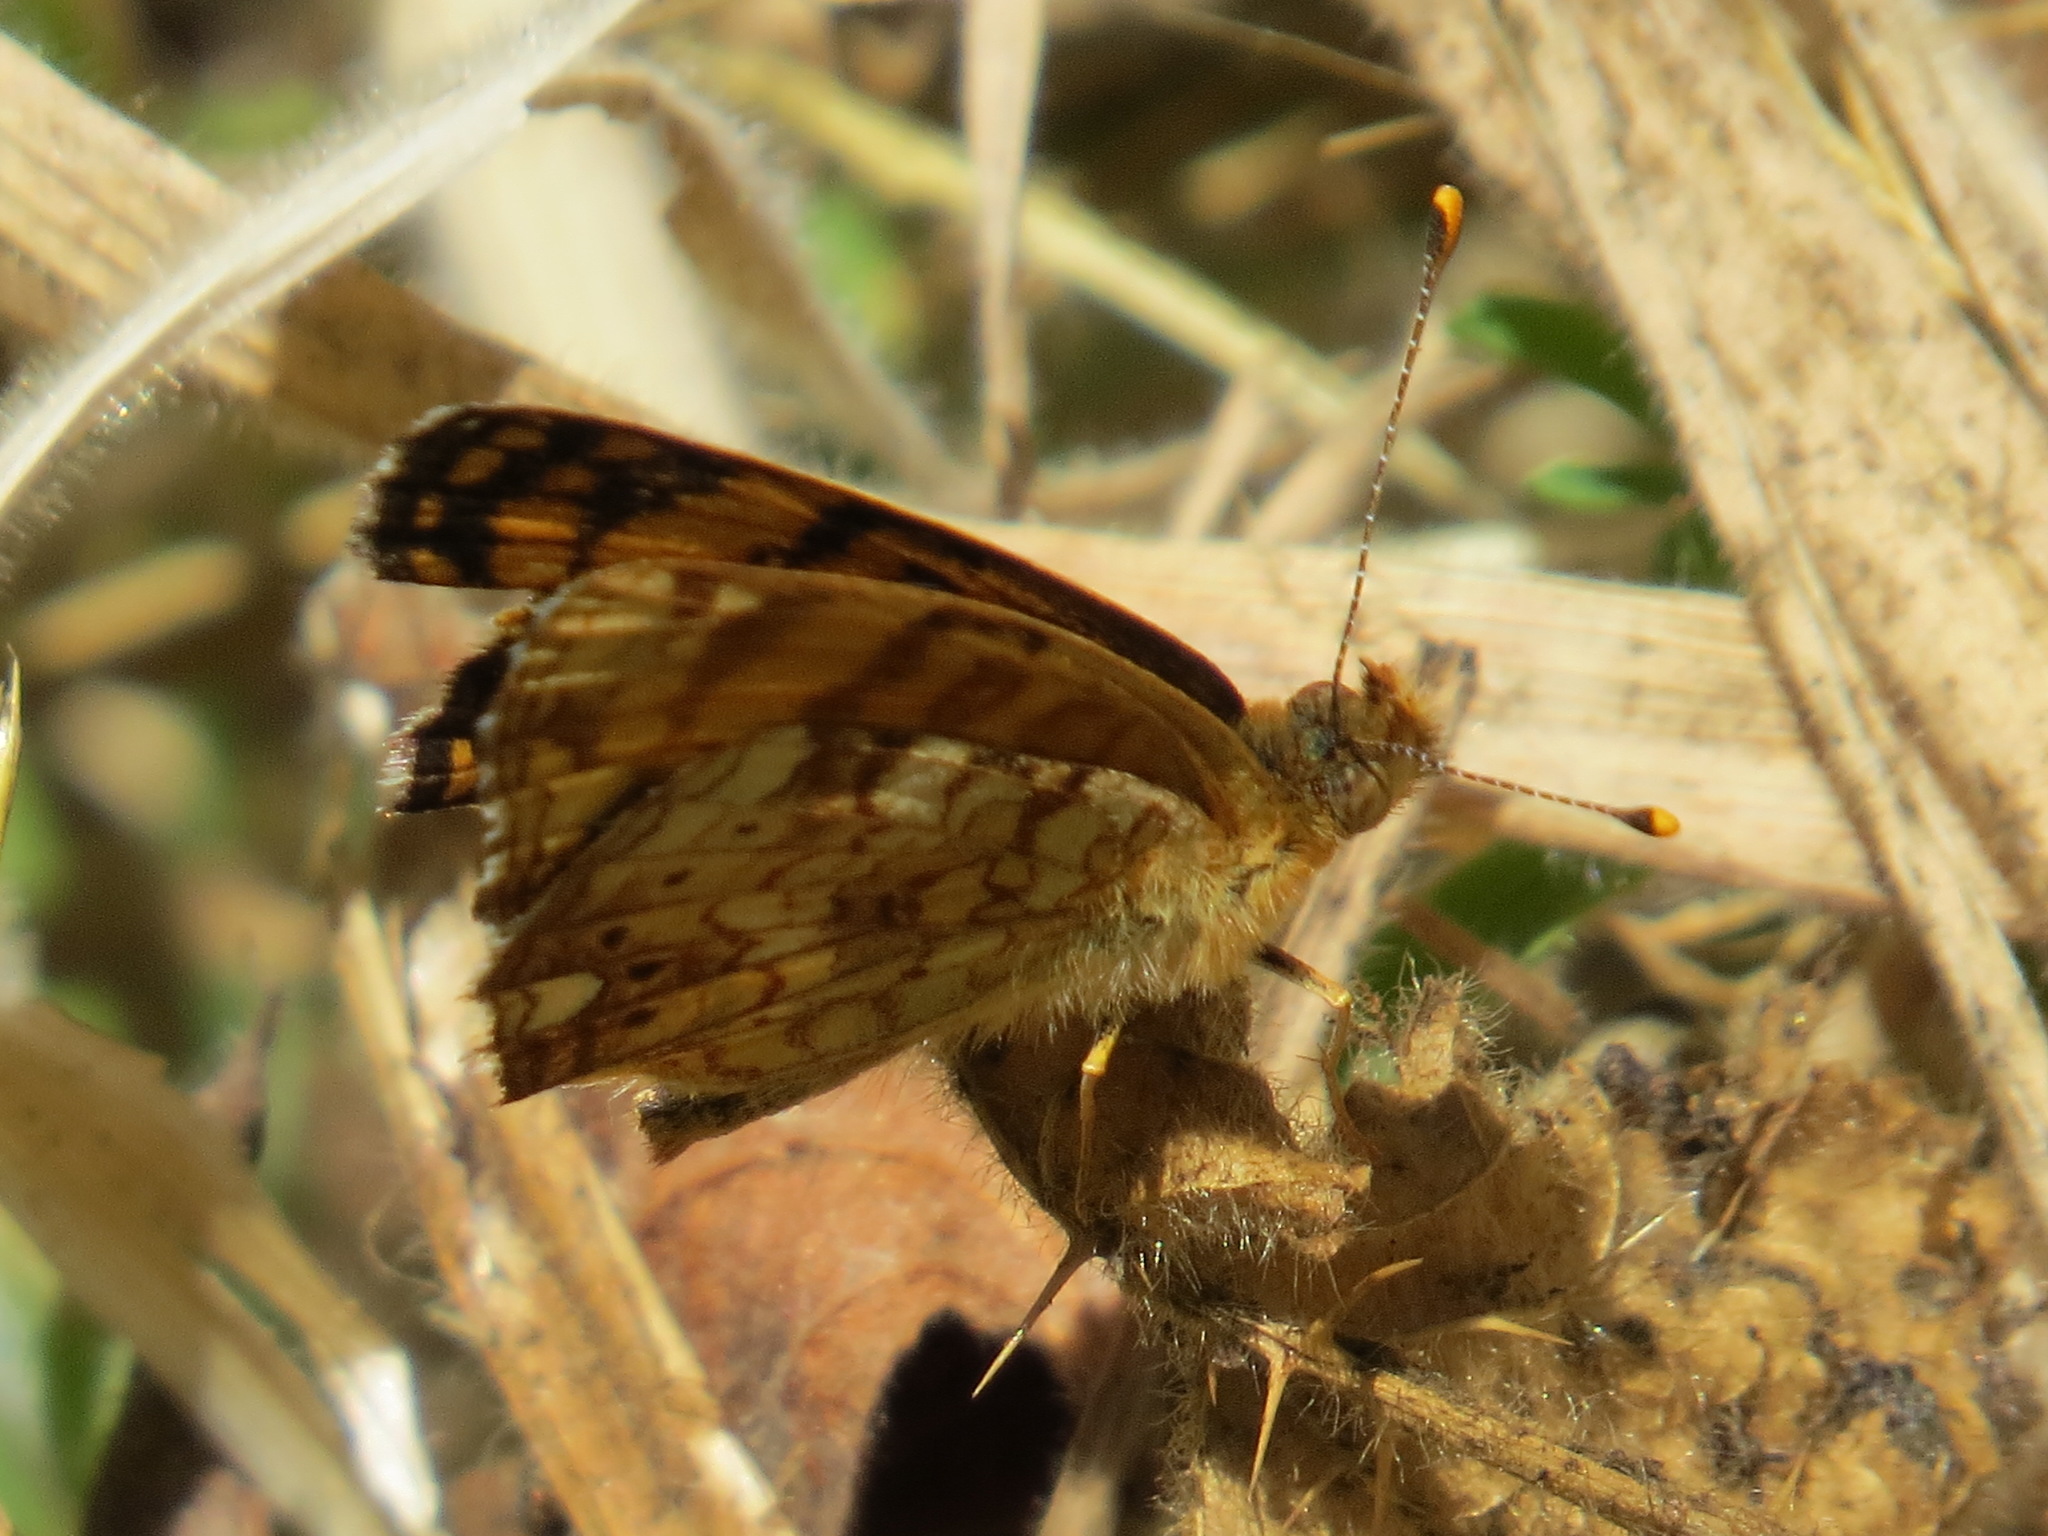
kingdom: Animalia
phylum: Arthropoda
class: Insecta
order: Lepidoptera
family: Nymphalidae
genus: Eresia
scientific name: Eresia aveyrona
